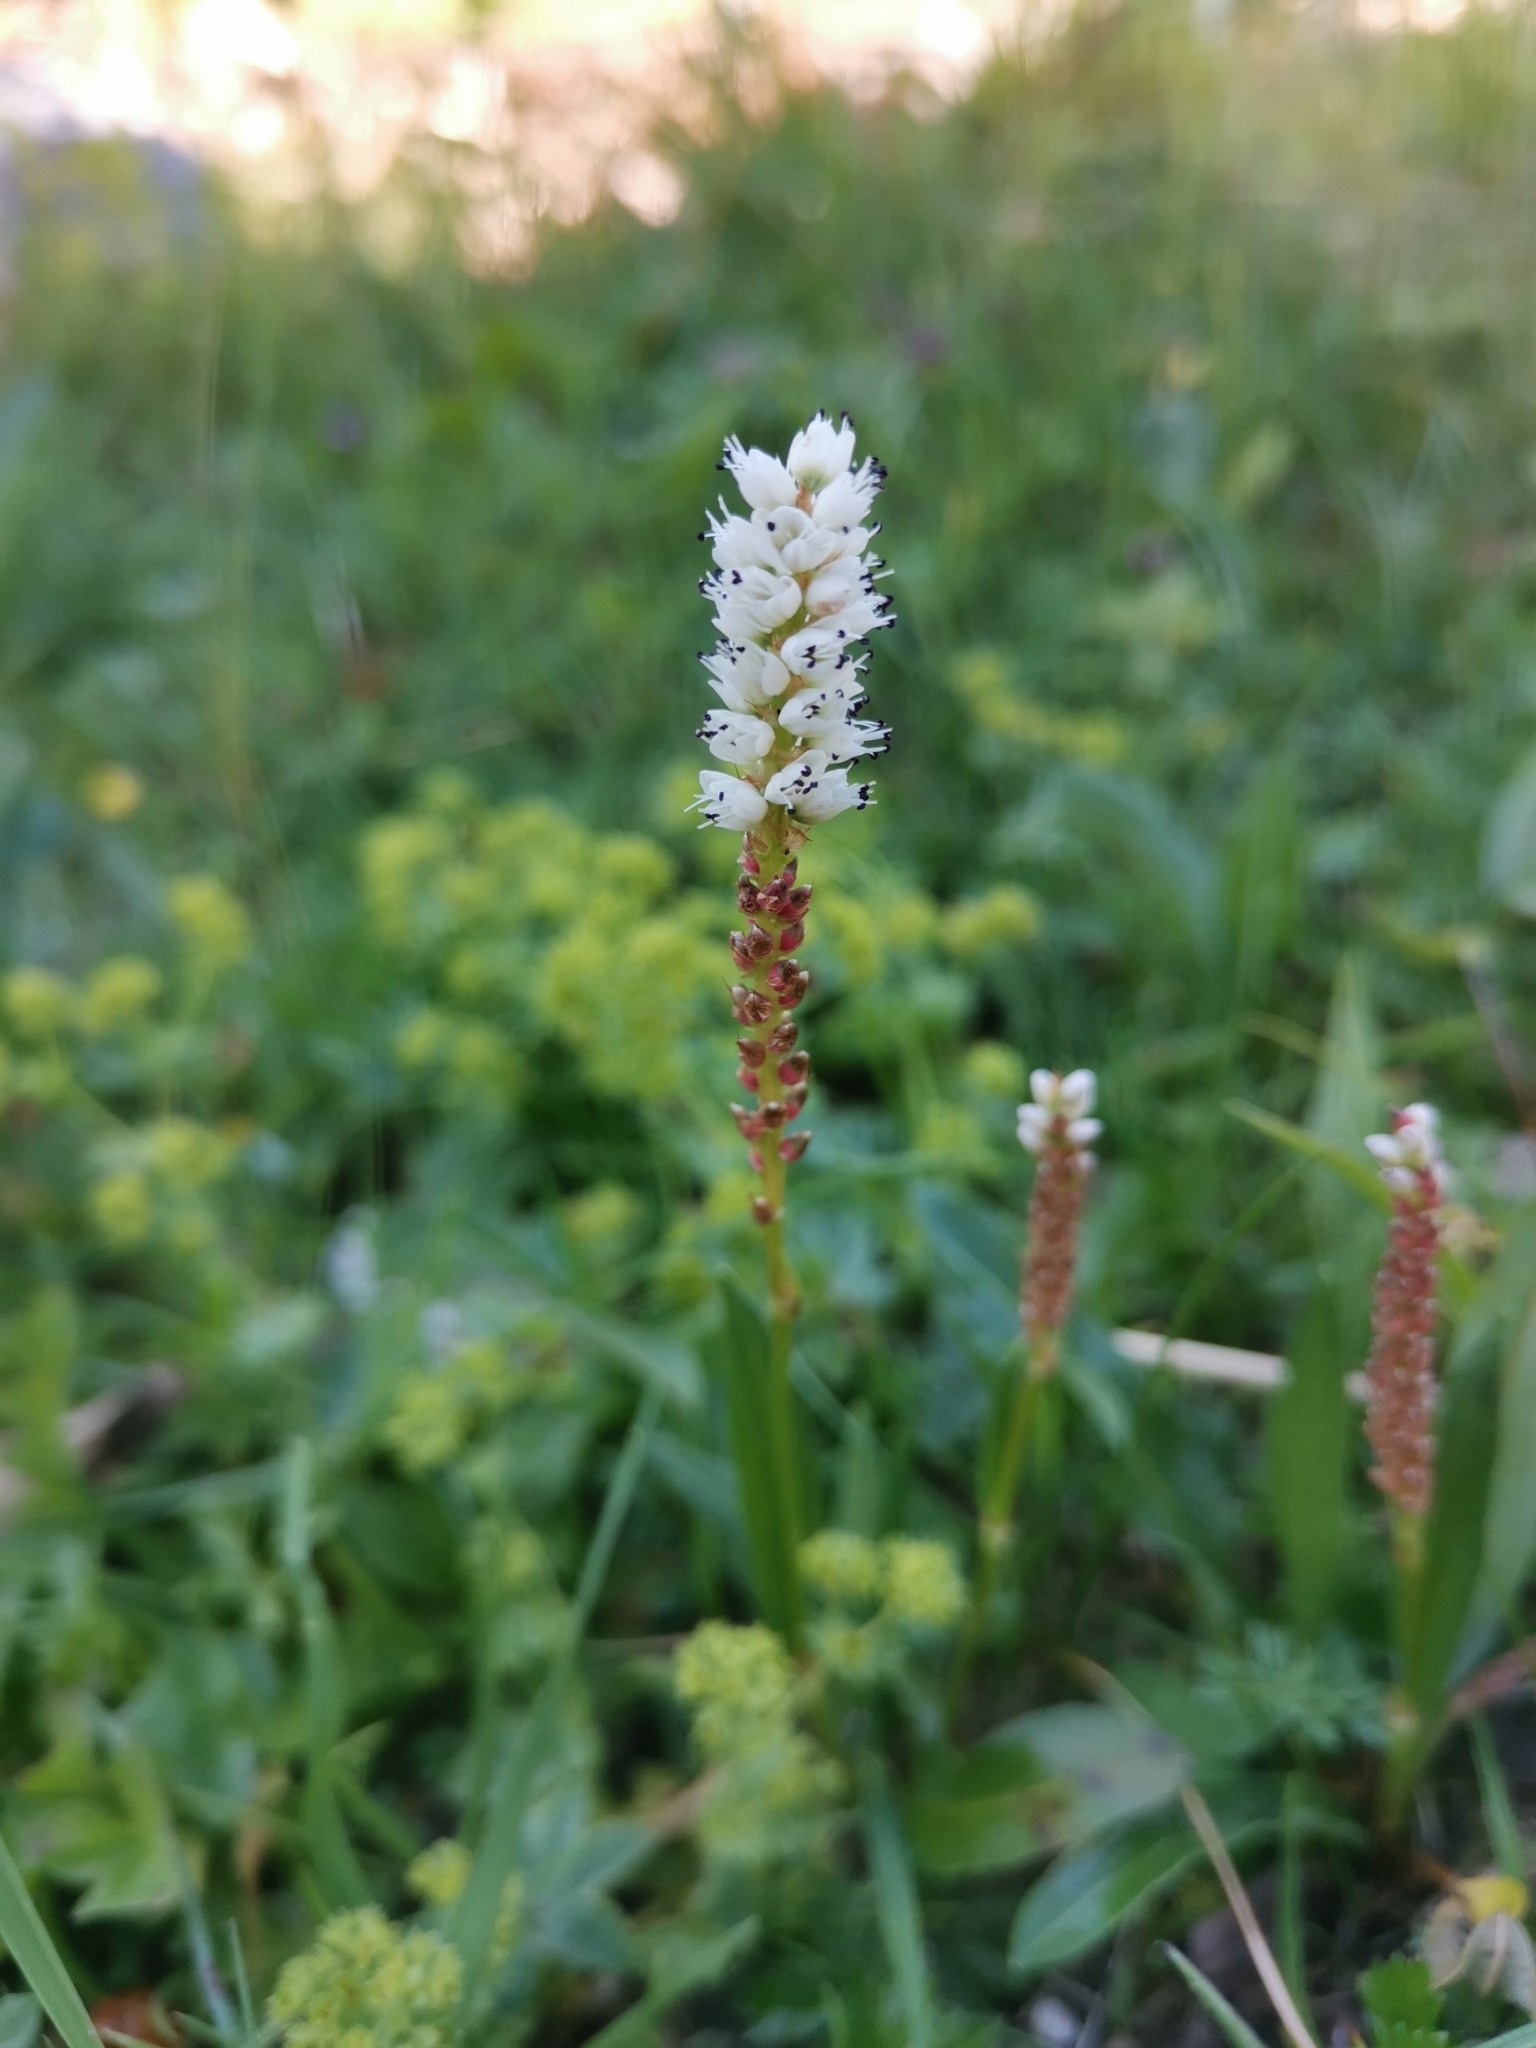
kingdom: Plantae
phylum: Tracheophyta
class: Magnoliopsida
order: Caryophyllales
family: Polygonaceae
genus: Bistorta
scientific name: Bistorta vivipara
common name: Alpine bistort
